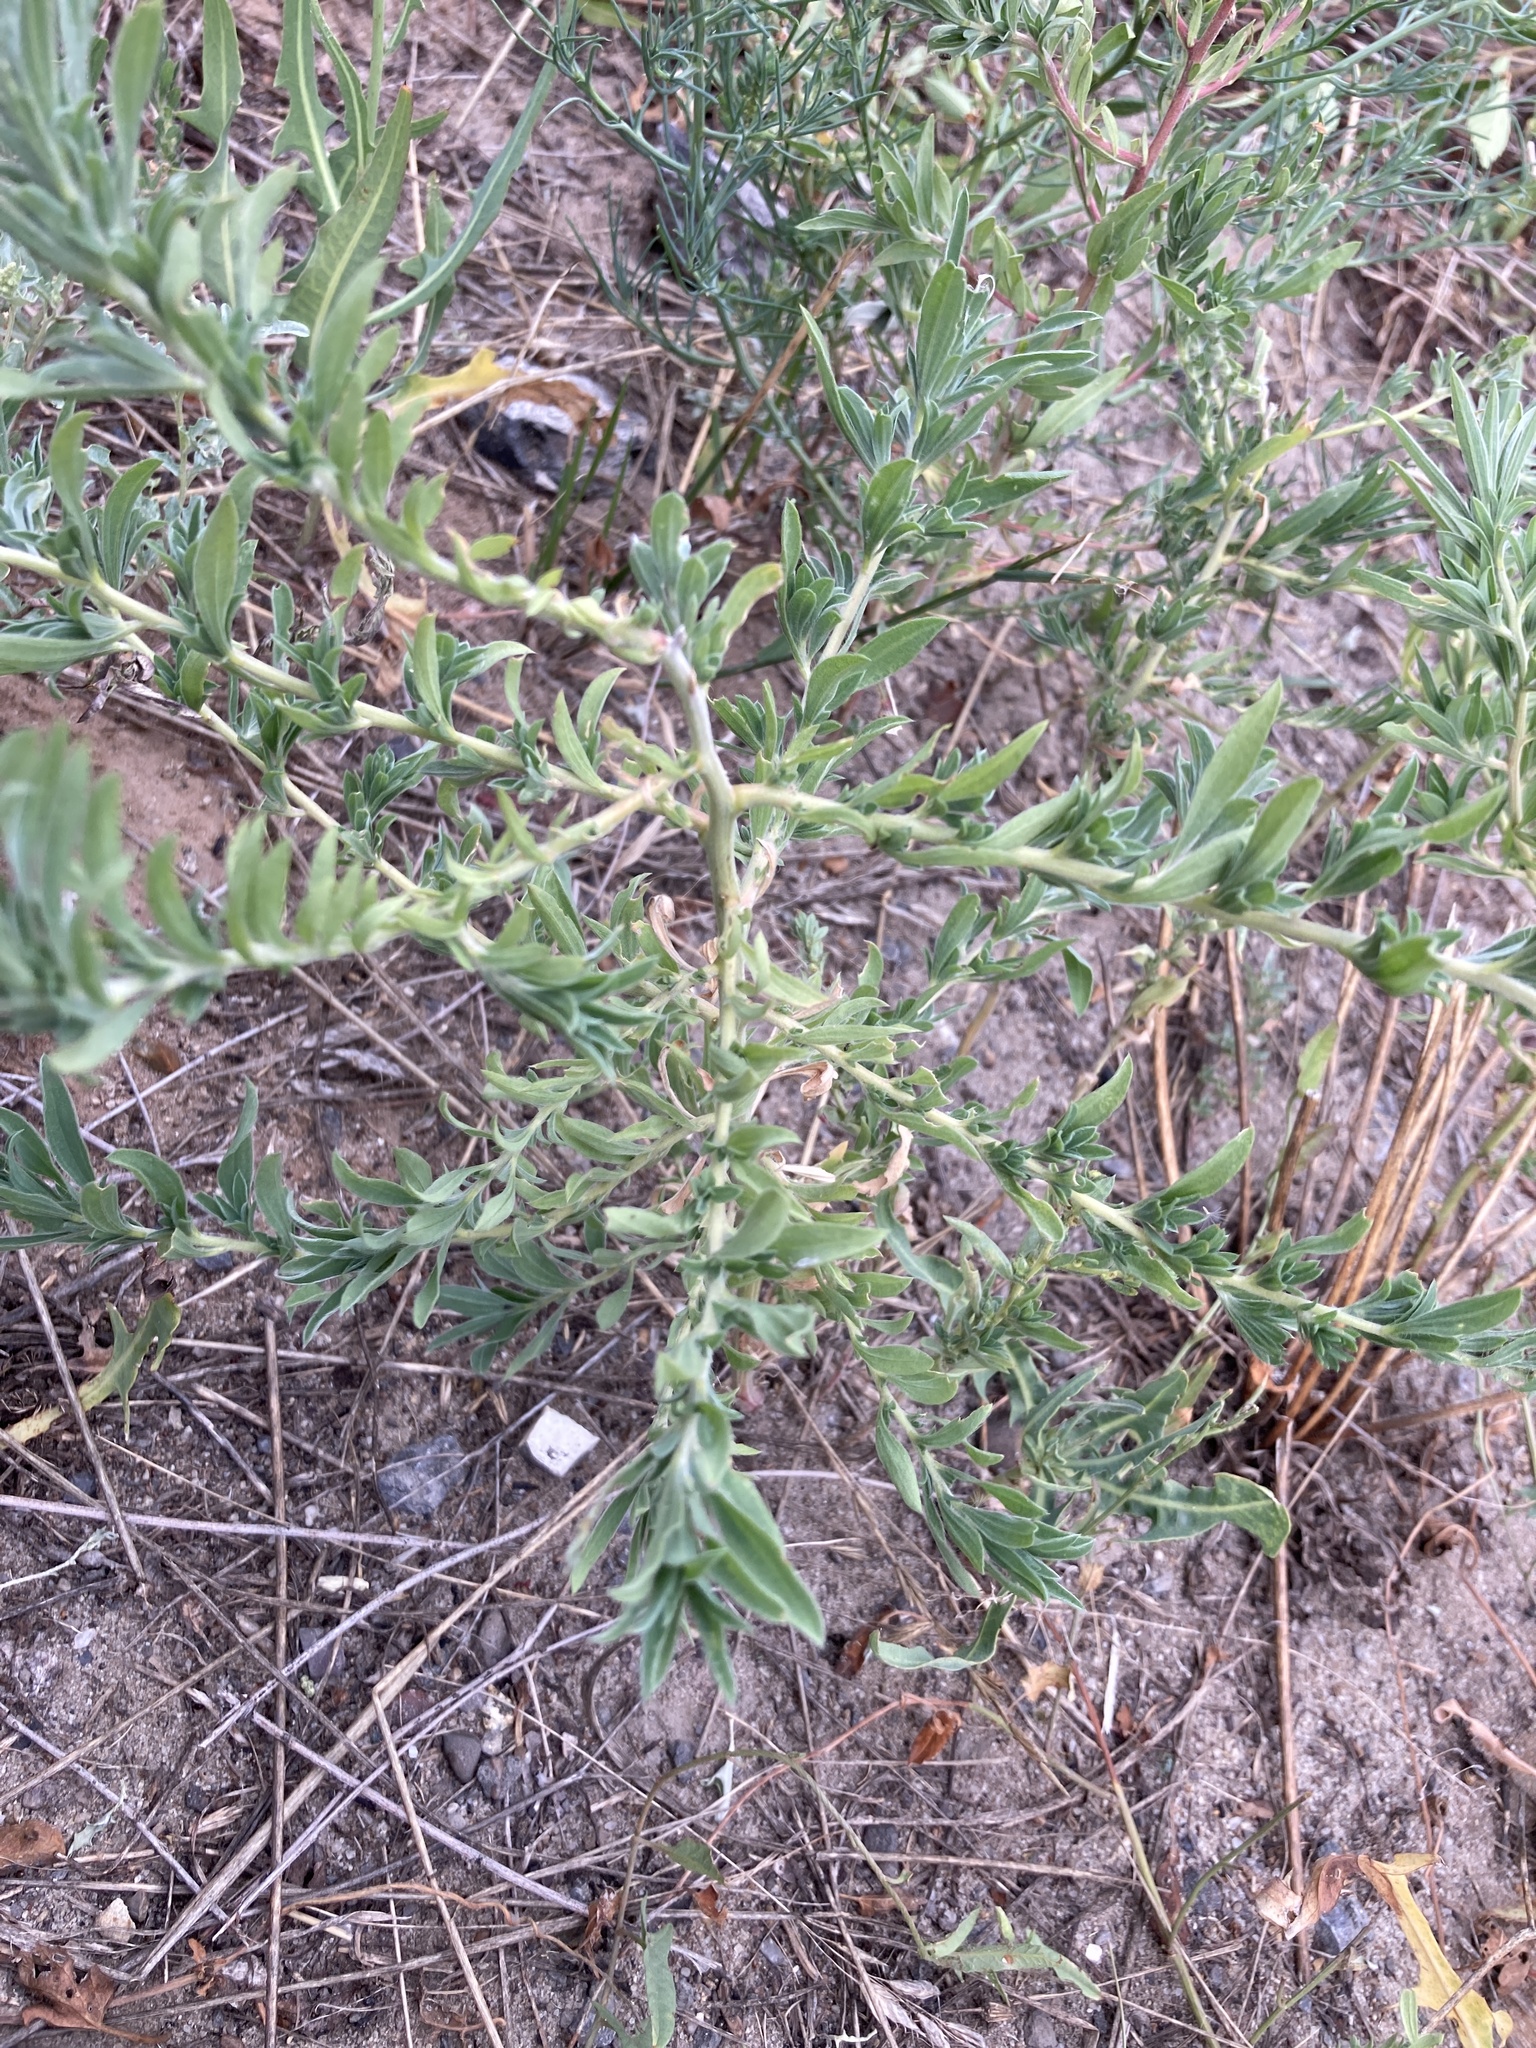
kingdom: Plantae
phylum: Tracheophyta
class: Magnoliopsida
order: Caryophyllales
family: Amaranthaceae
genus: Bassia
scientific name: Bassia scoparia
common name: Belvedere
